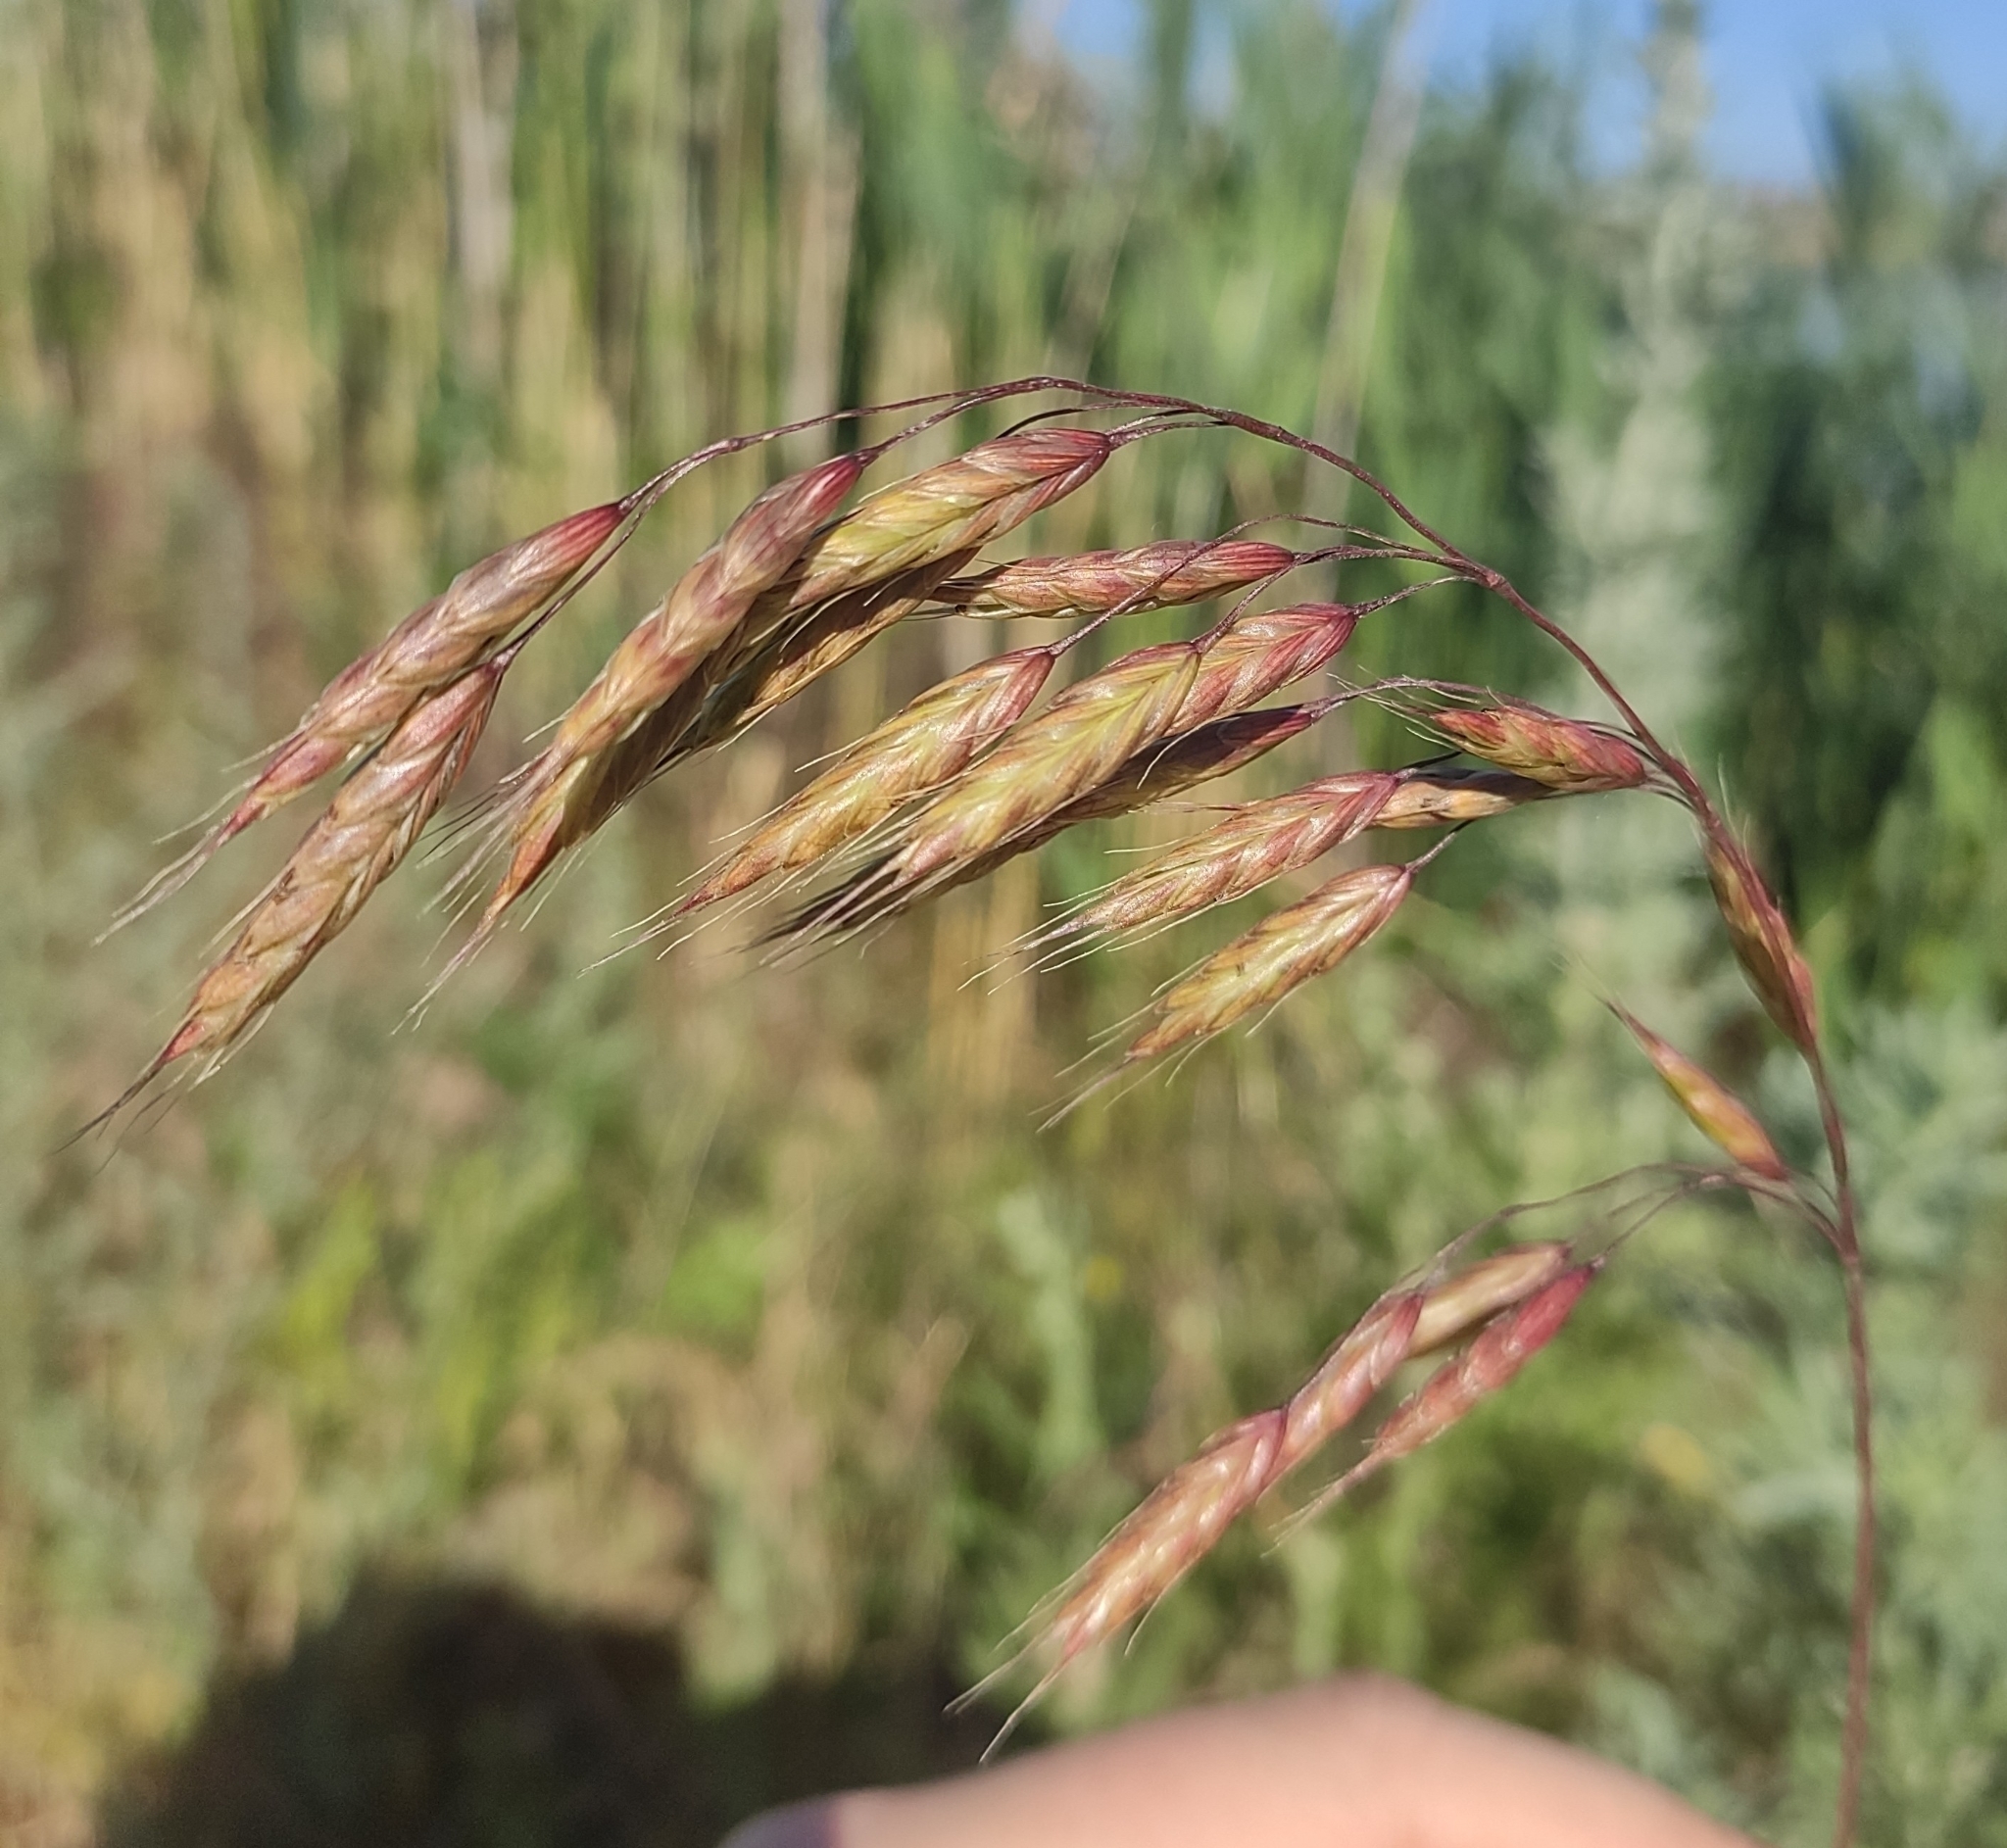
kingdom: Plantae
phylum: Tracheophyta
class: Liliopsida
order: Poales
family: Poaceae
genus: Bromus
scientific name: Bromus japonicus
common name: Japanese brome
